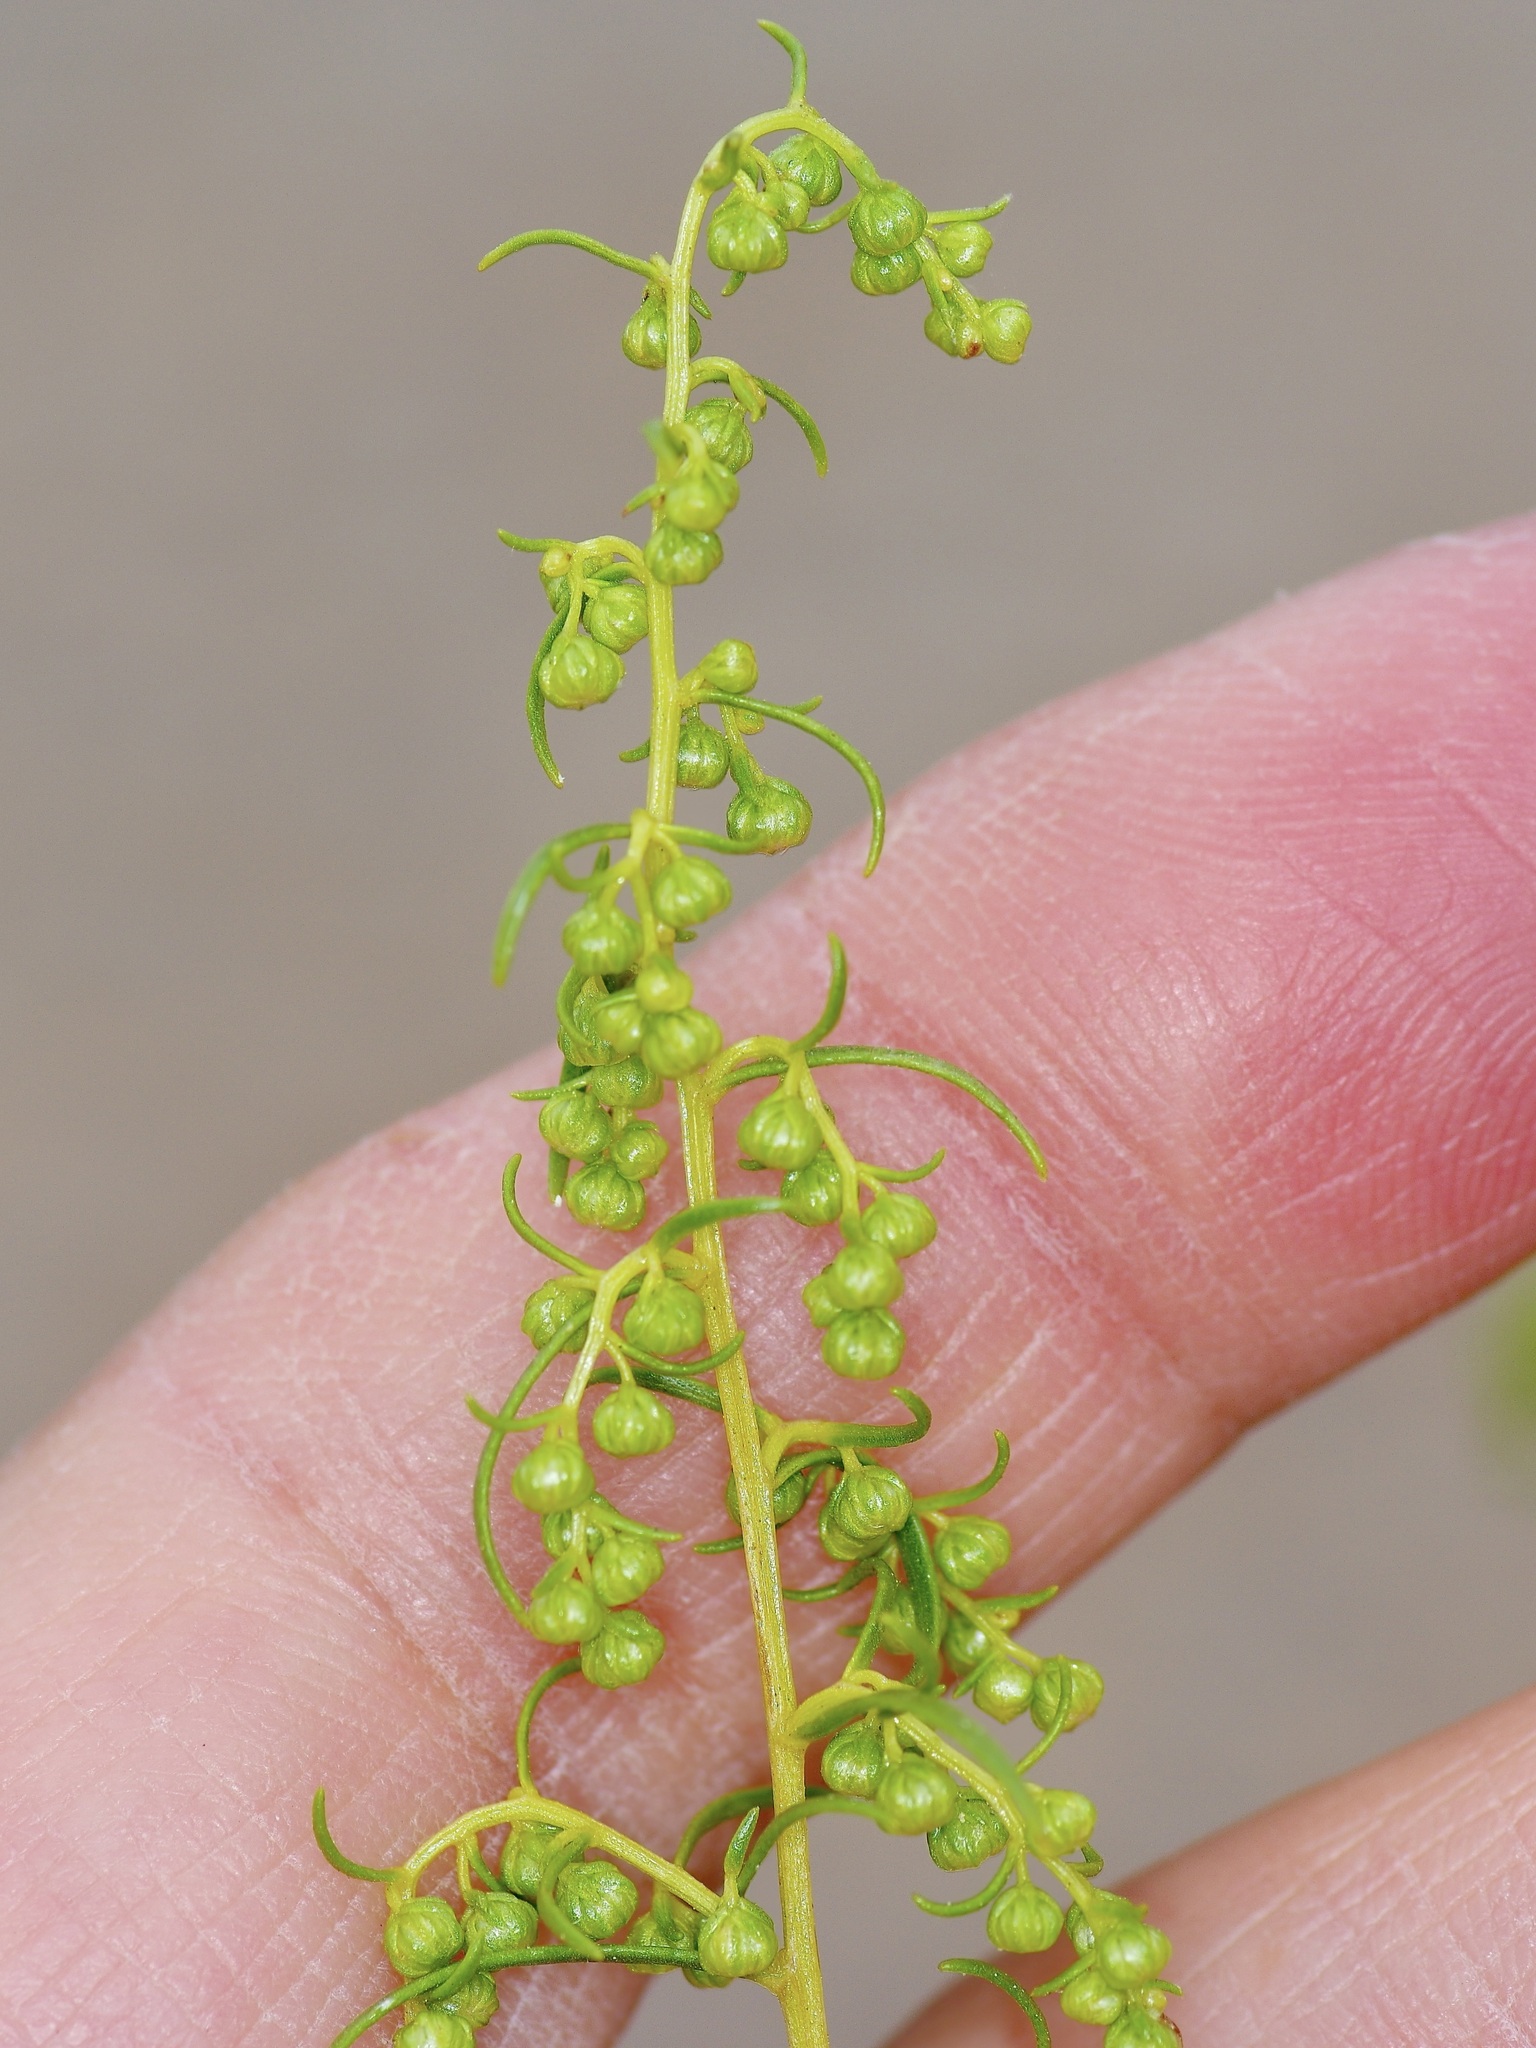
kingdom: Plantae
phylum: Tracheophyta
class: Magnoliopsida
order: Asterales
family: Asteraceae
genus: Artemisia
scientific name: Artemisia dracunculus
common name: Tarragon
